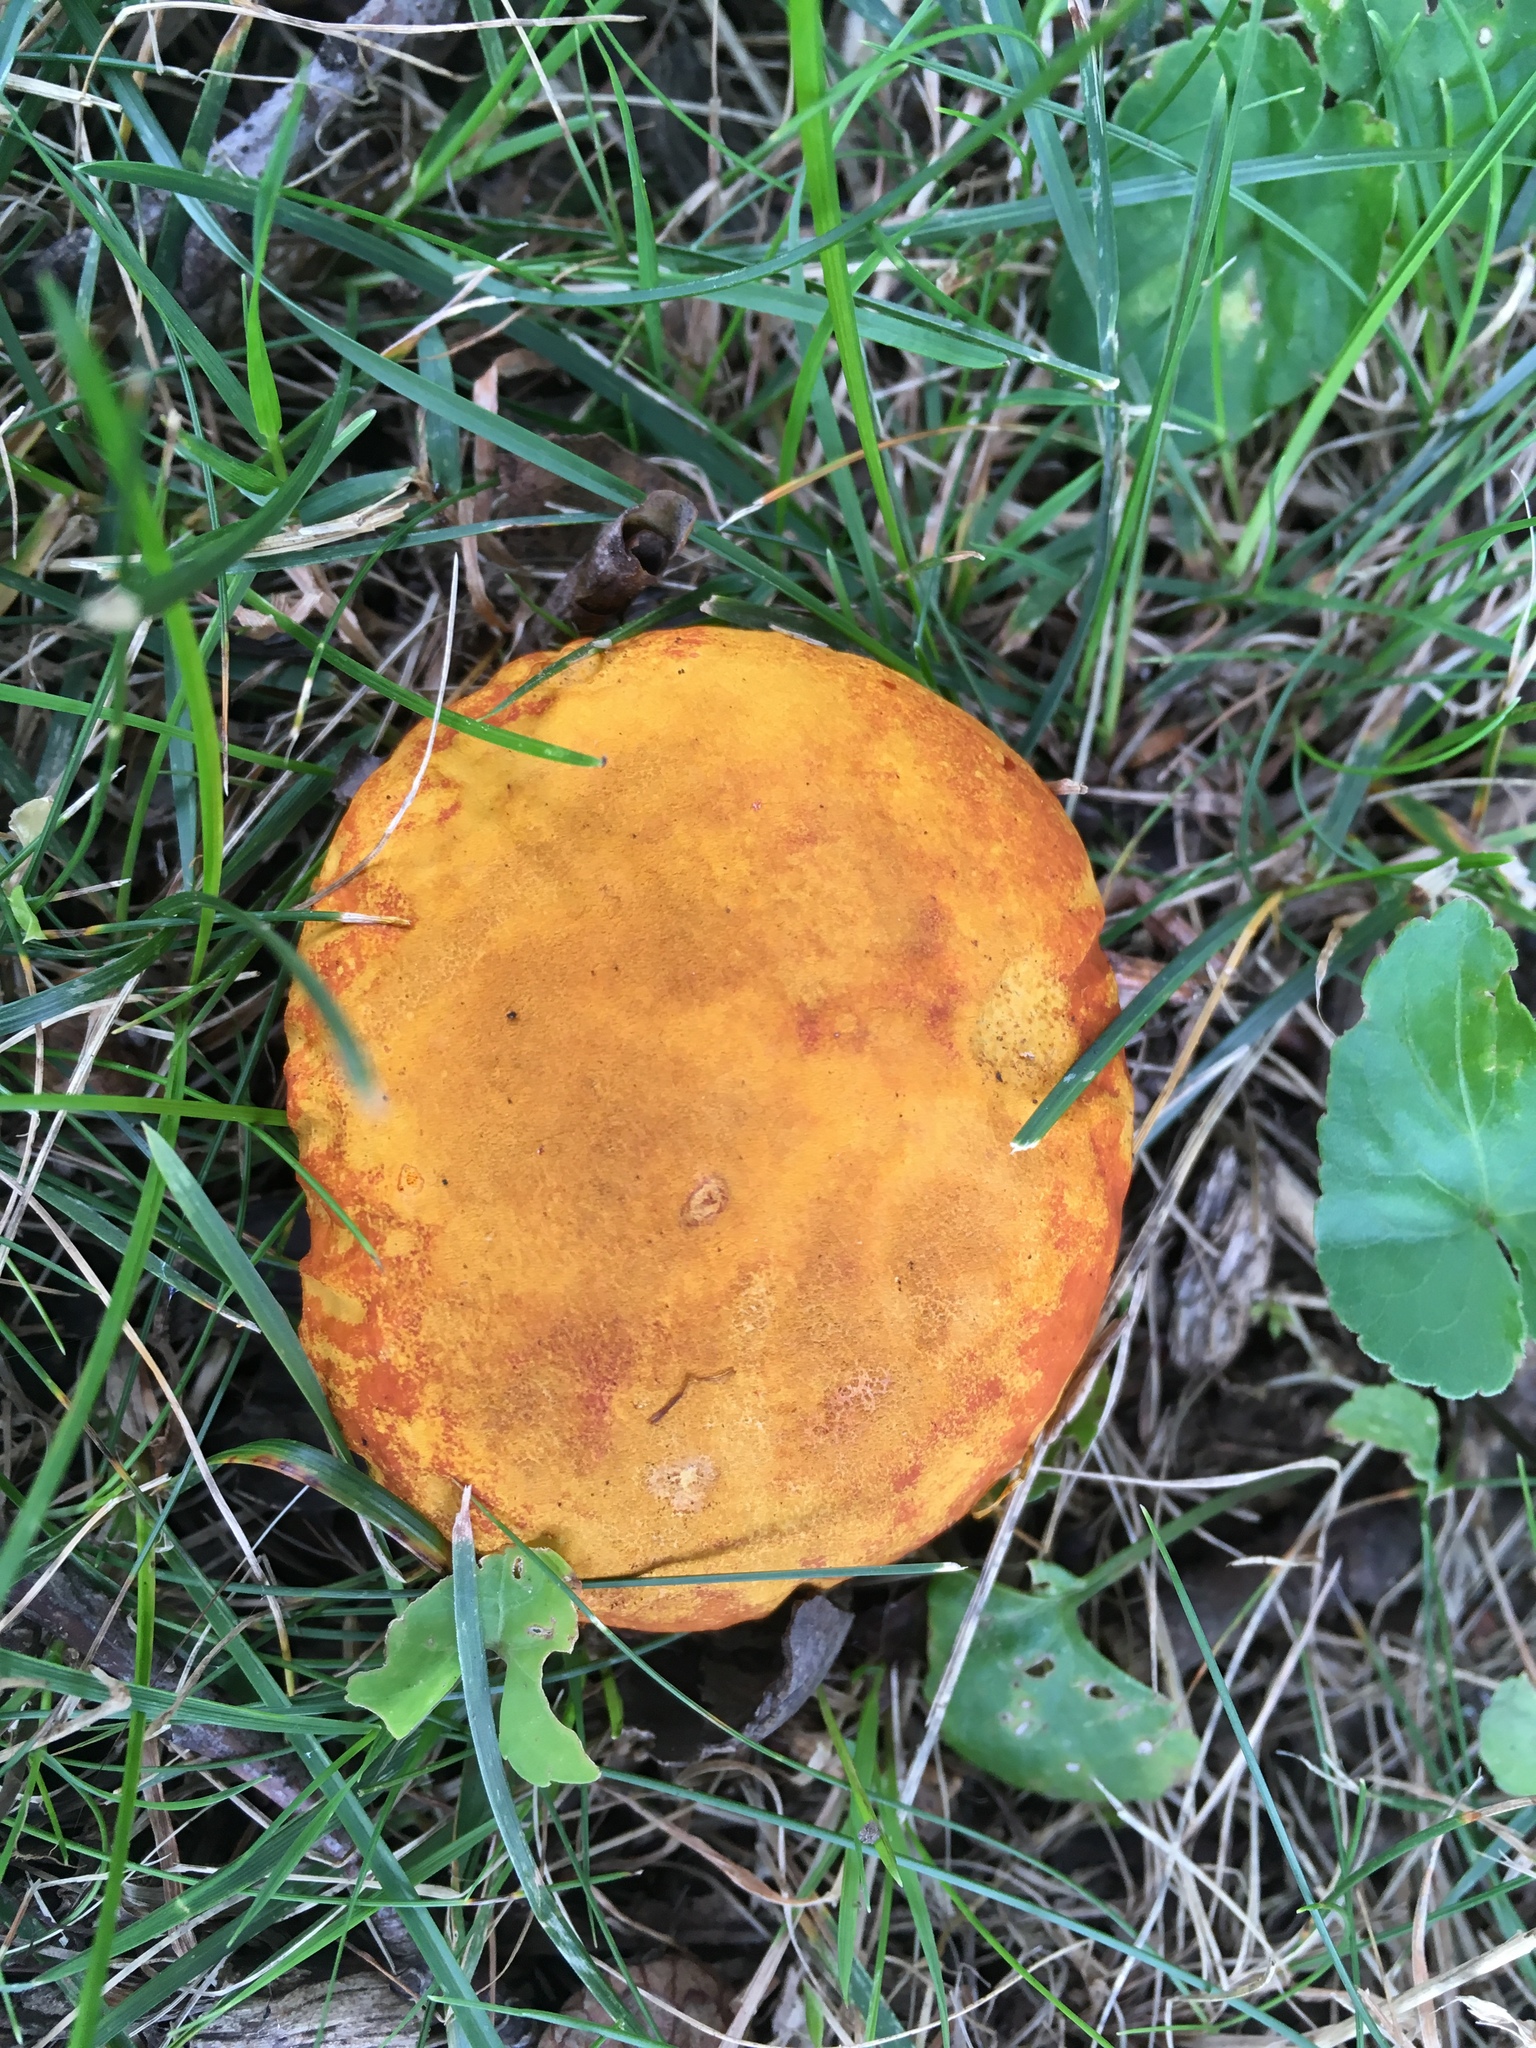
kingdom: Fungi
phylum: Basidiomycota
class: Agaricomycetes
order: Agaricales
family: Lycoperdaceae
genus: Calvatia
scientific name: Calvatia candida
